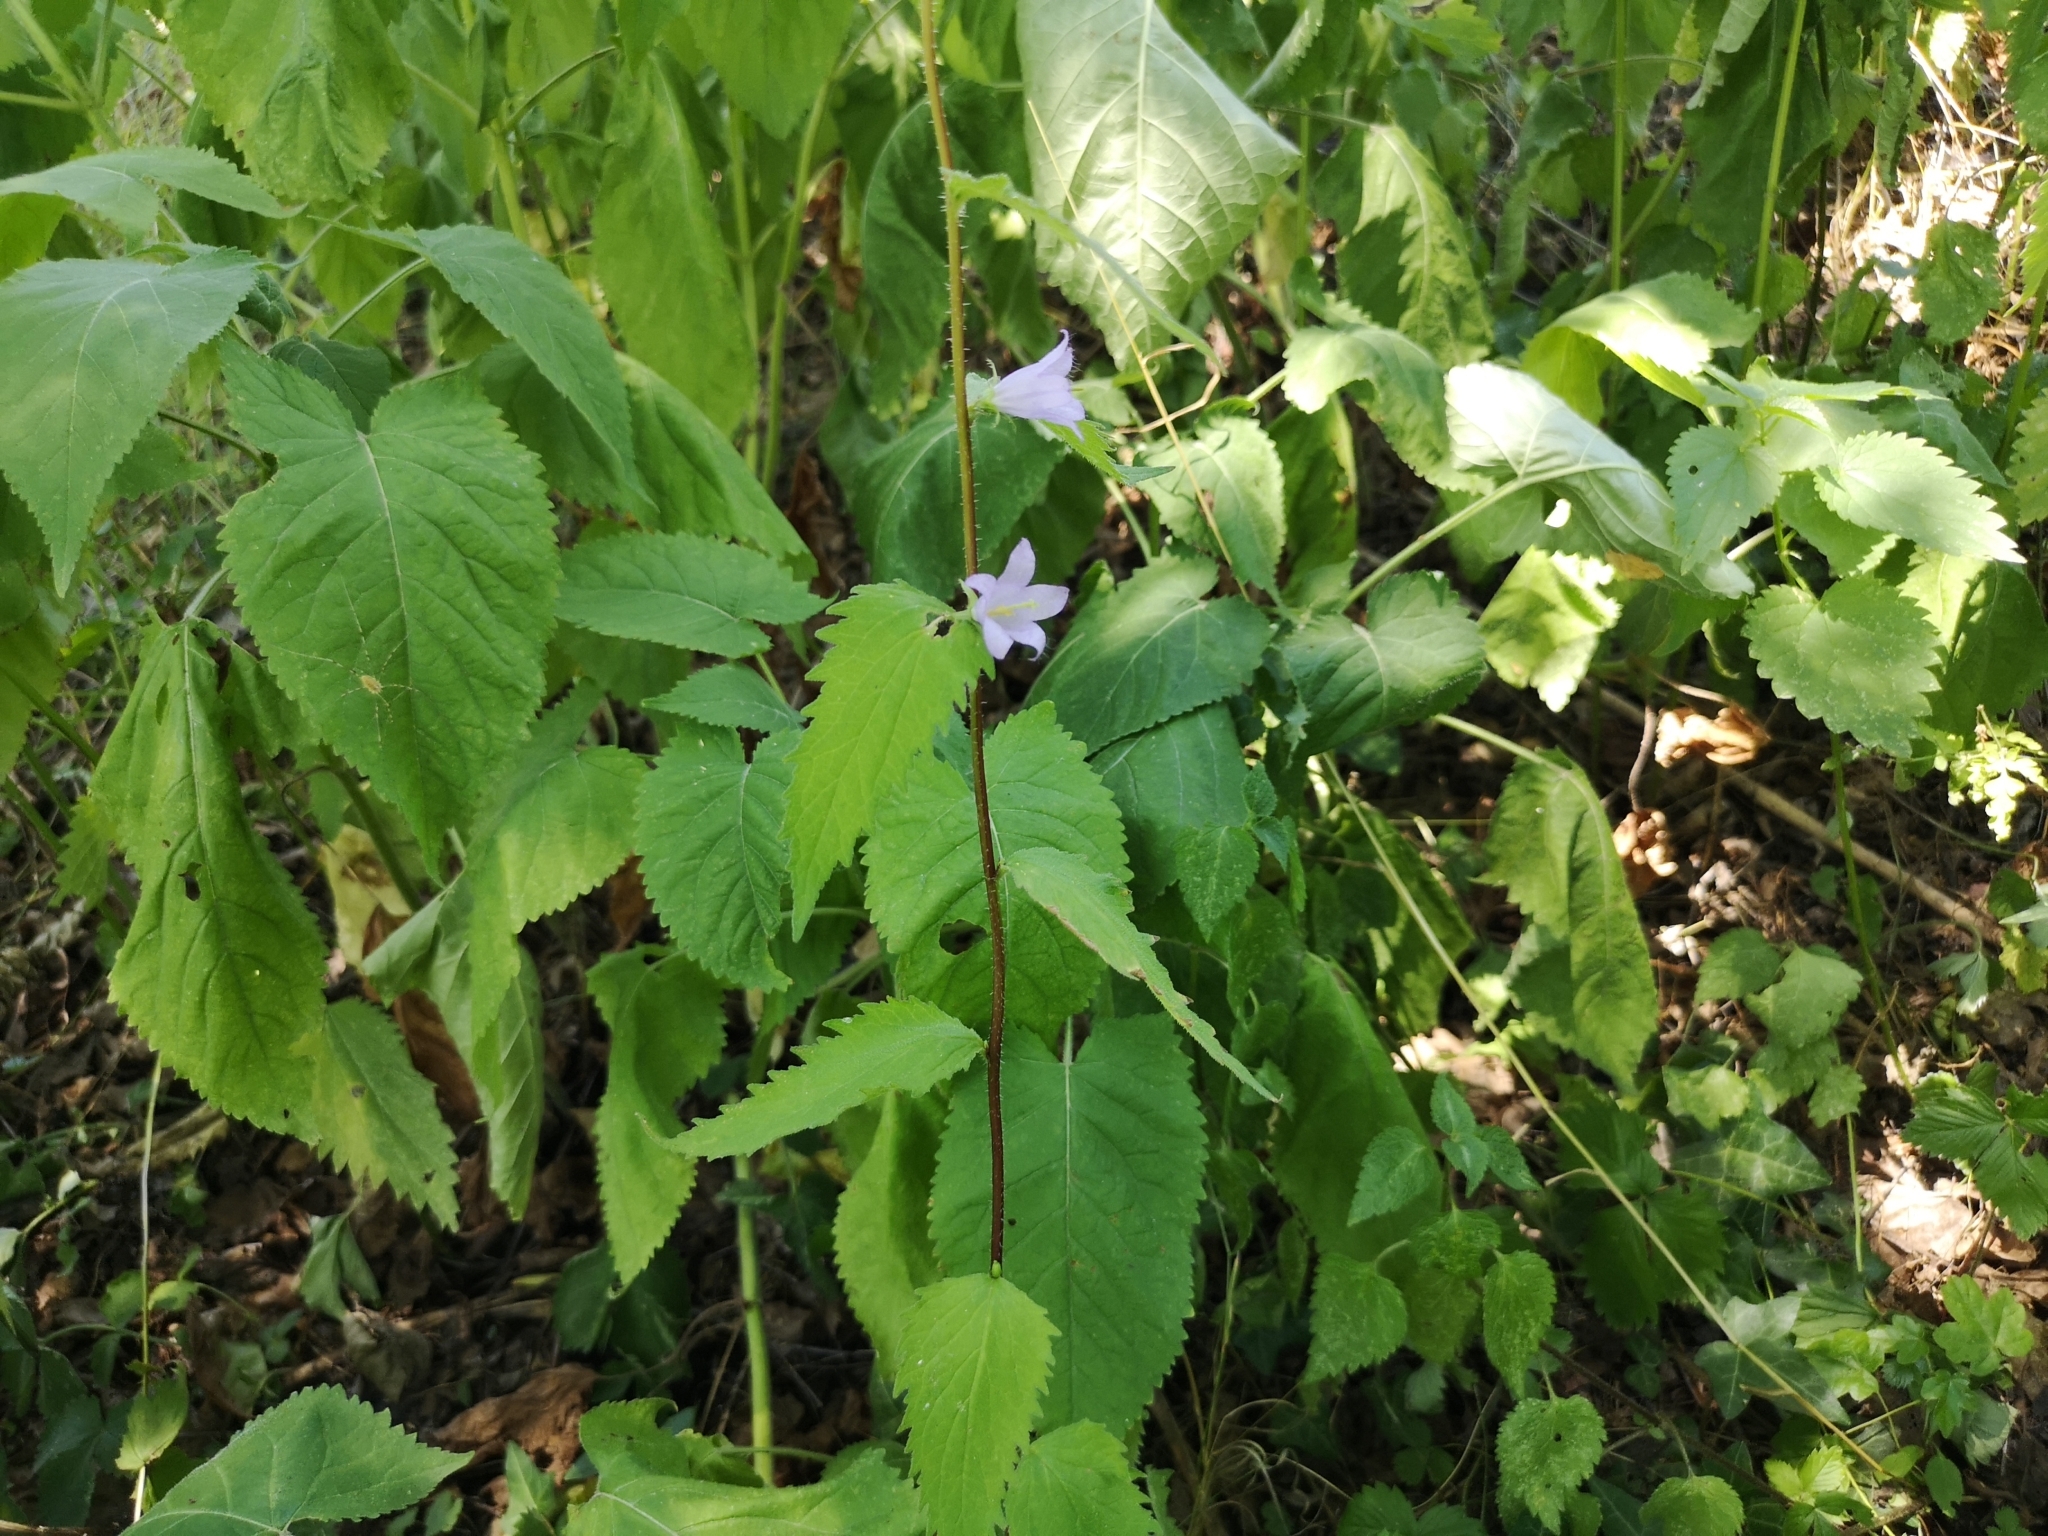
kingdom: Plantae
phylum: Tracheophyta
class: Magnoliopsida
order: Asterales
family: Campanulaceae
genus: Campanula
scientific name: Campanula trachelium
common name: Nettle-leaved bellflower
